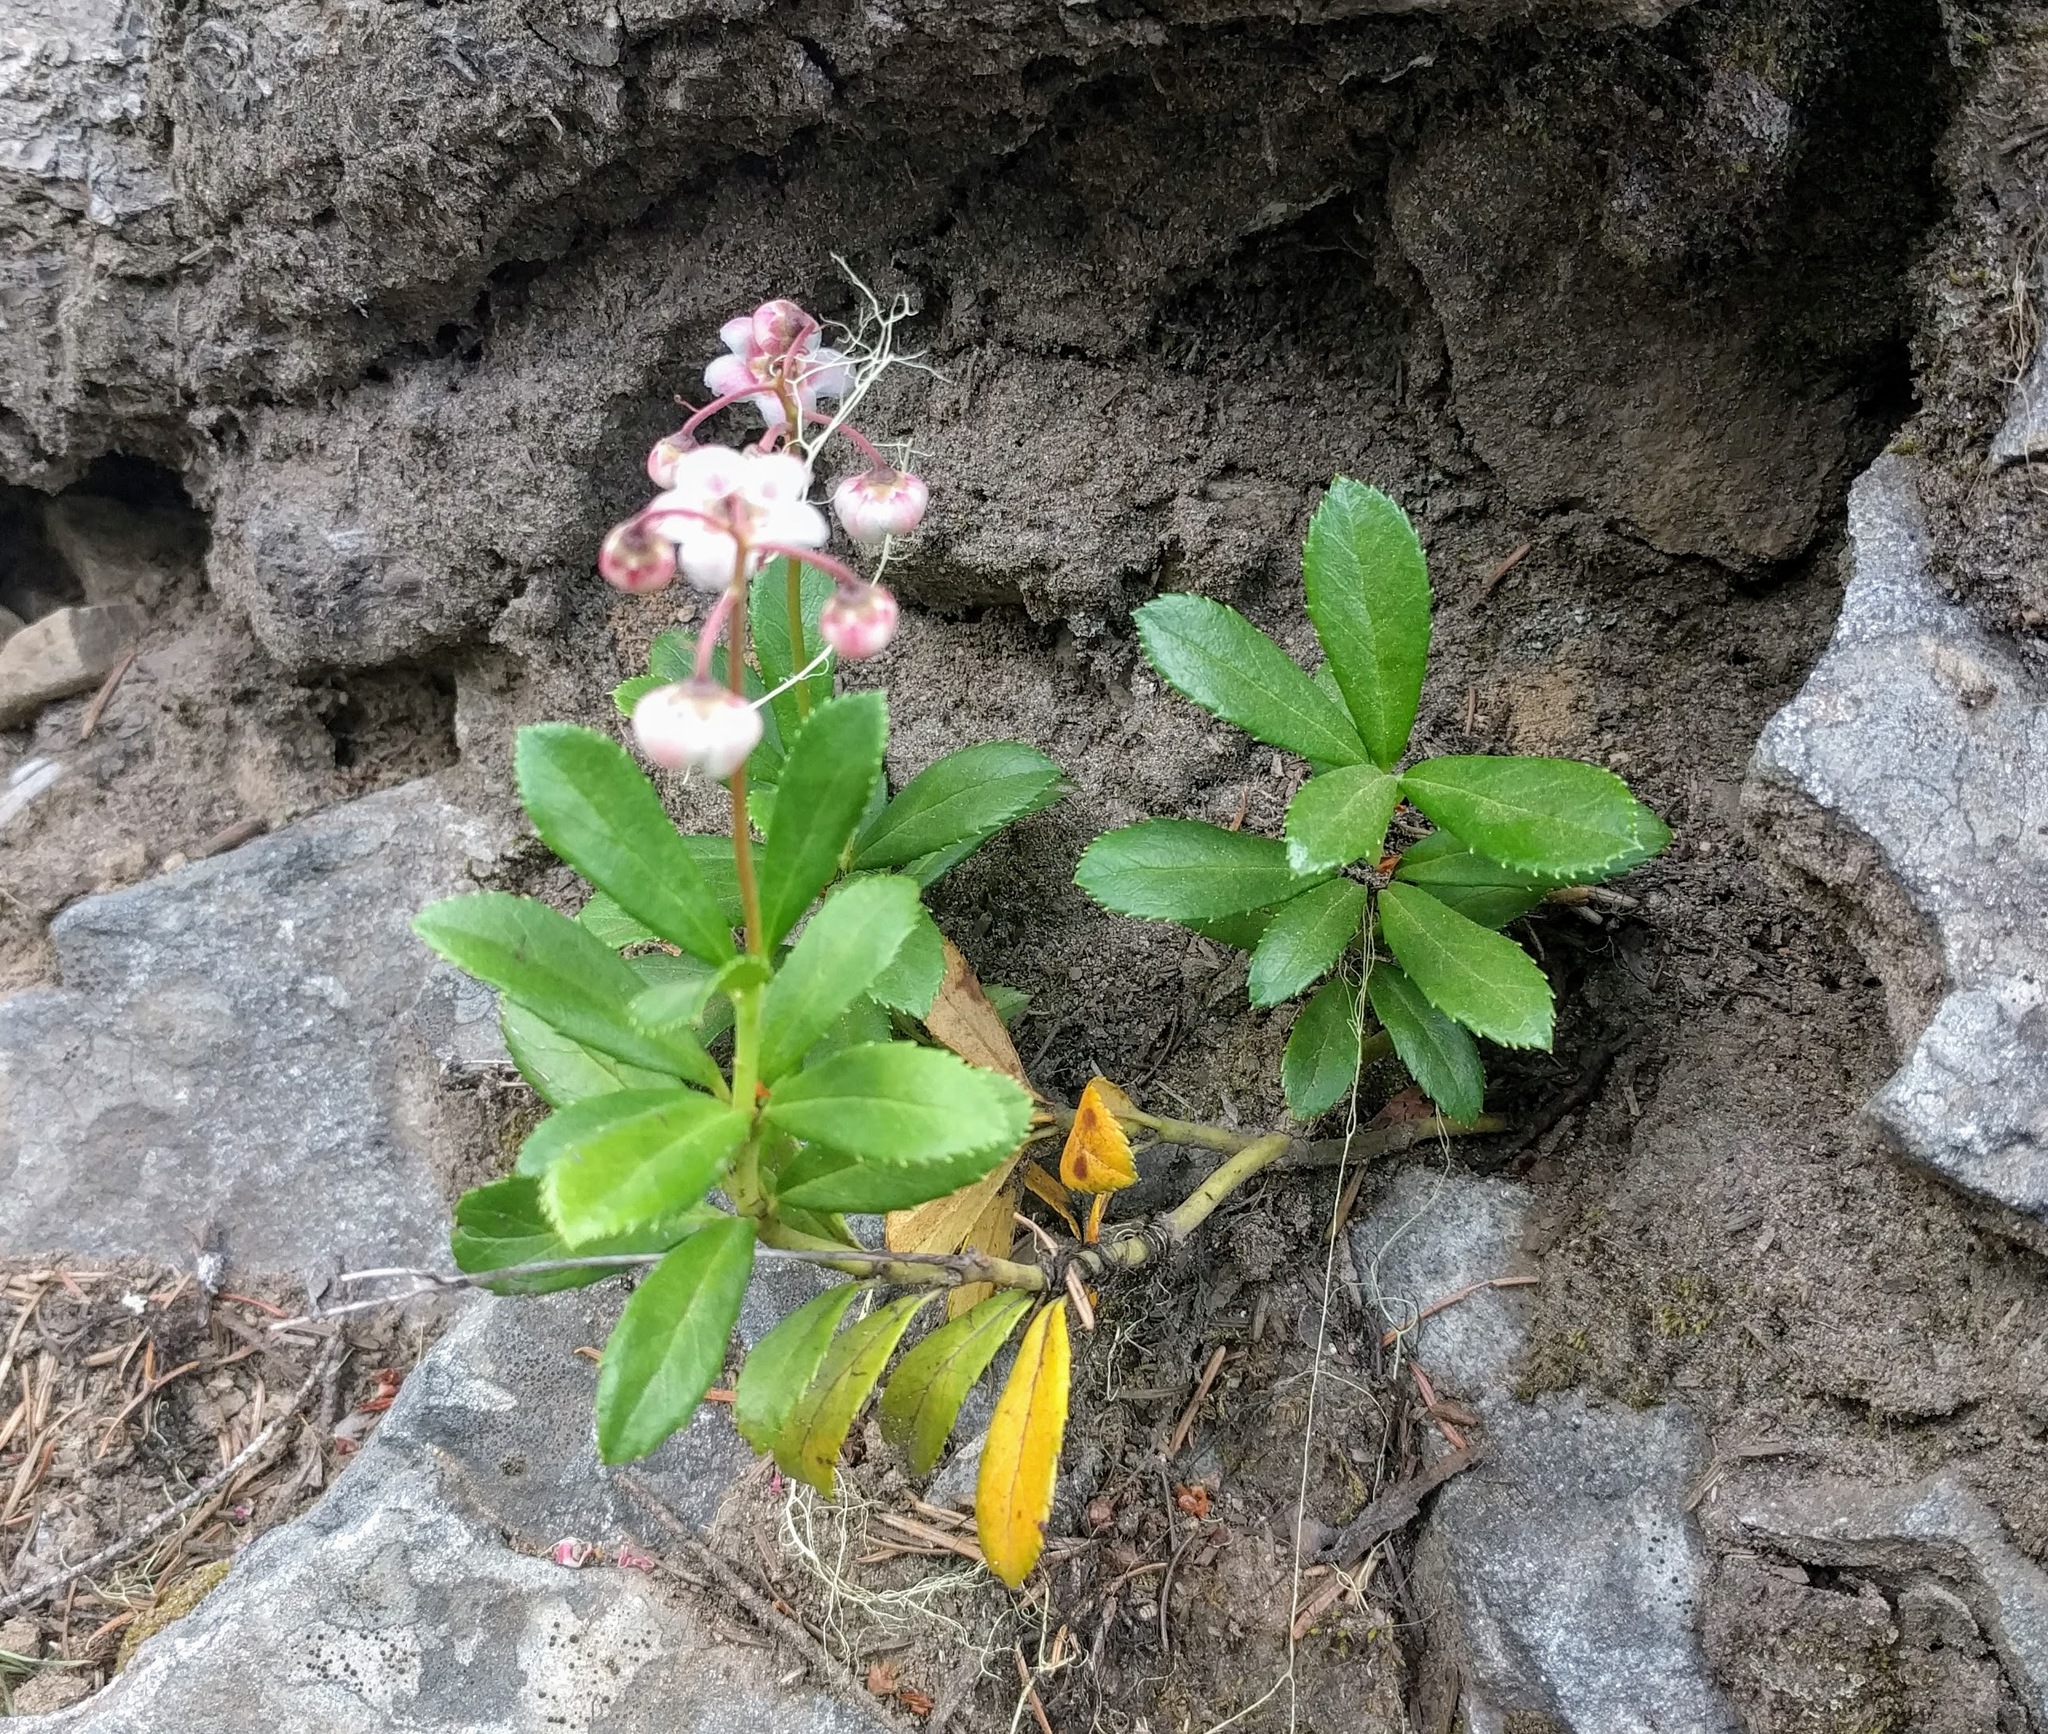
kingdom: Plantae
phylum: Tracheophyta
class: Magnoliopsida
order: Ericales
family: Ericaceae
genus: Chimaphila
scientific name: Chimaphila umbellata
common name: Pipsissewa
